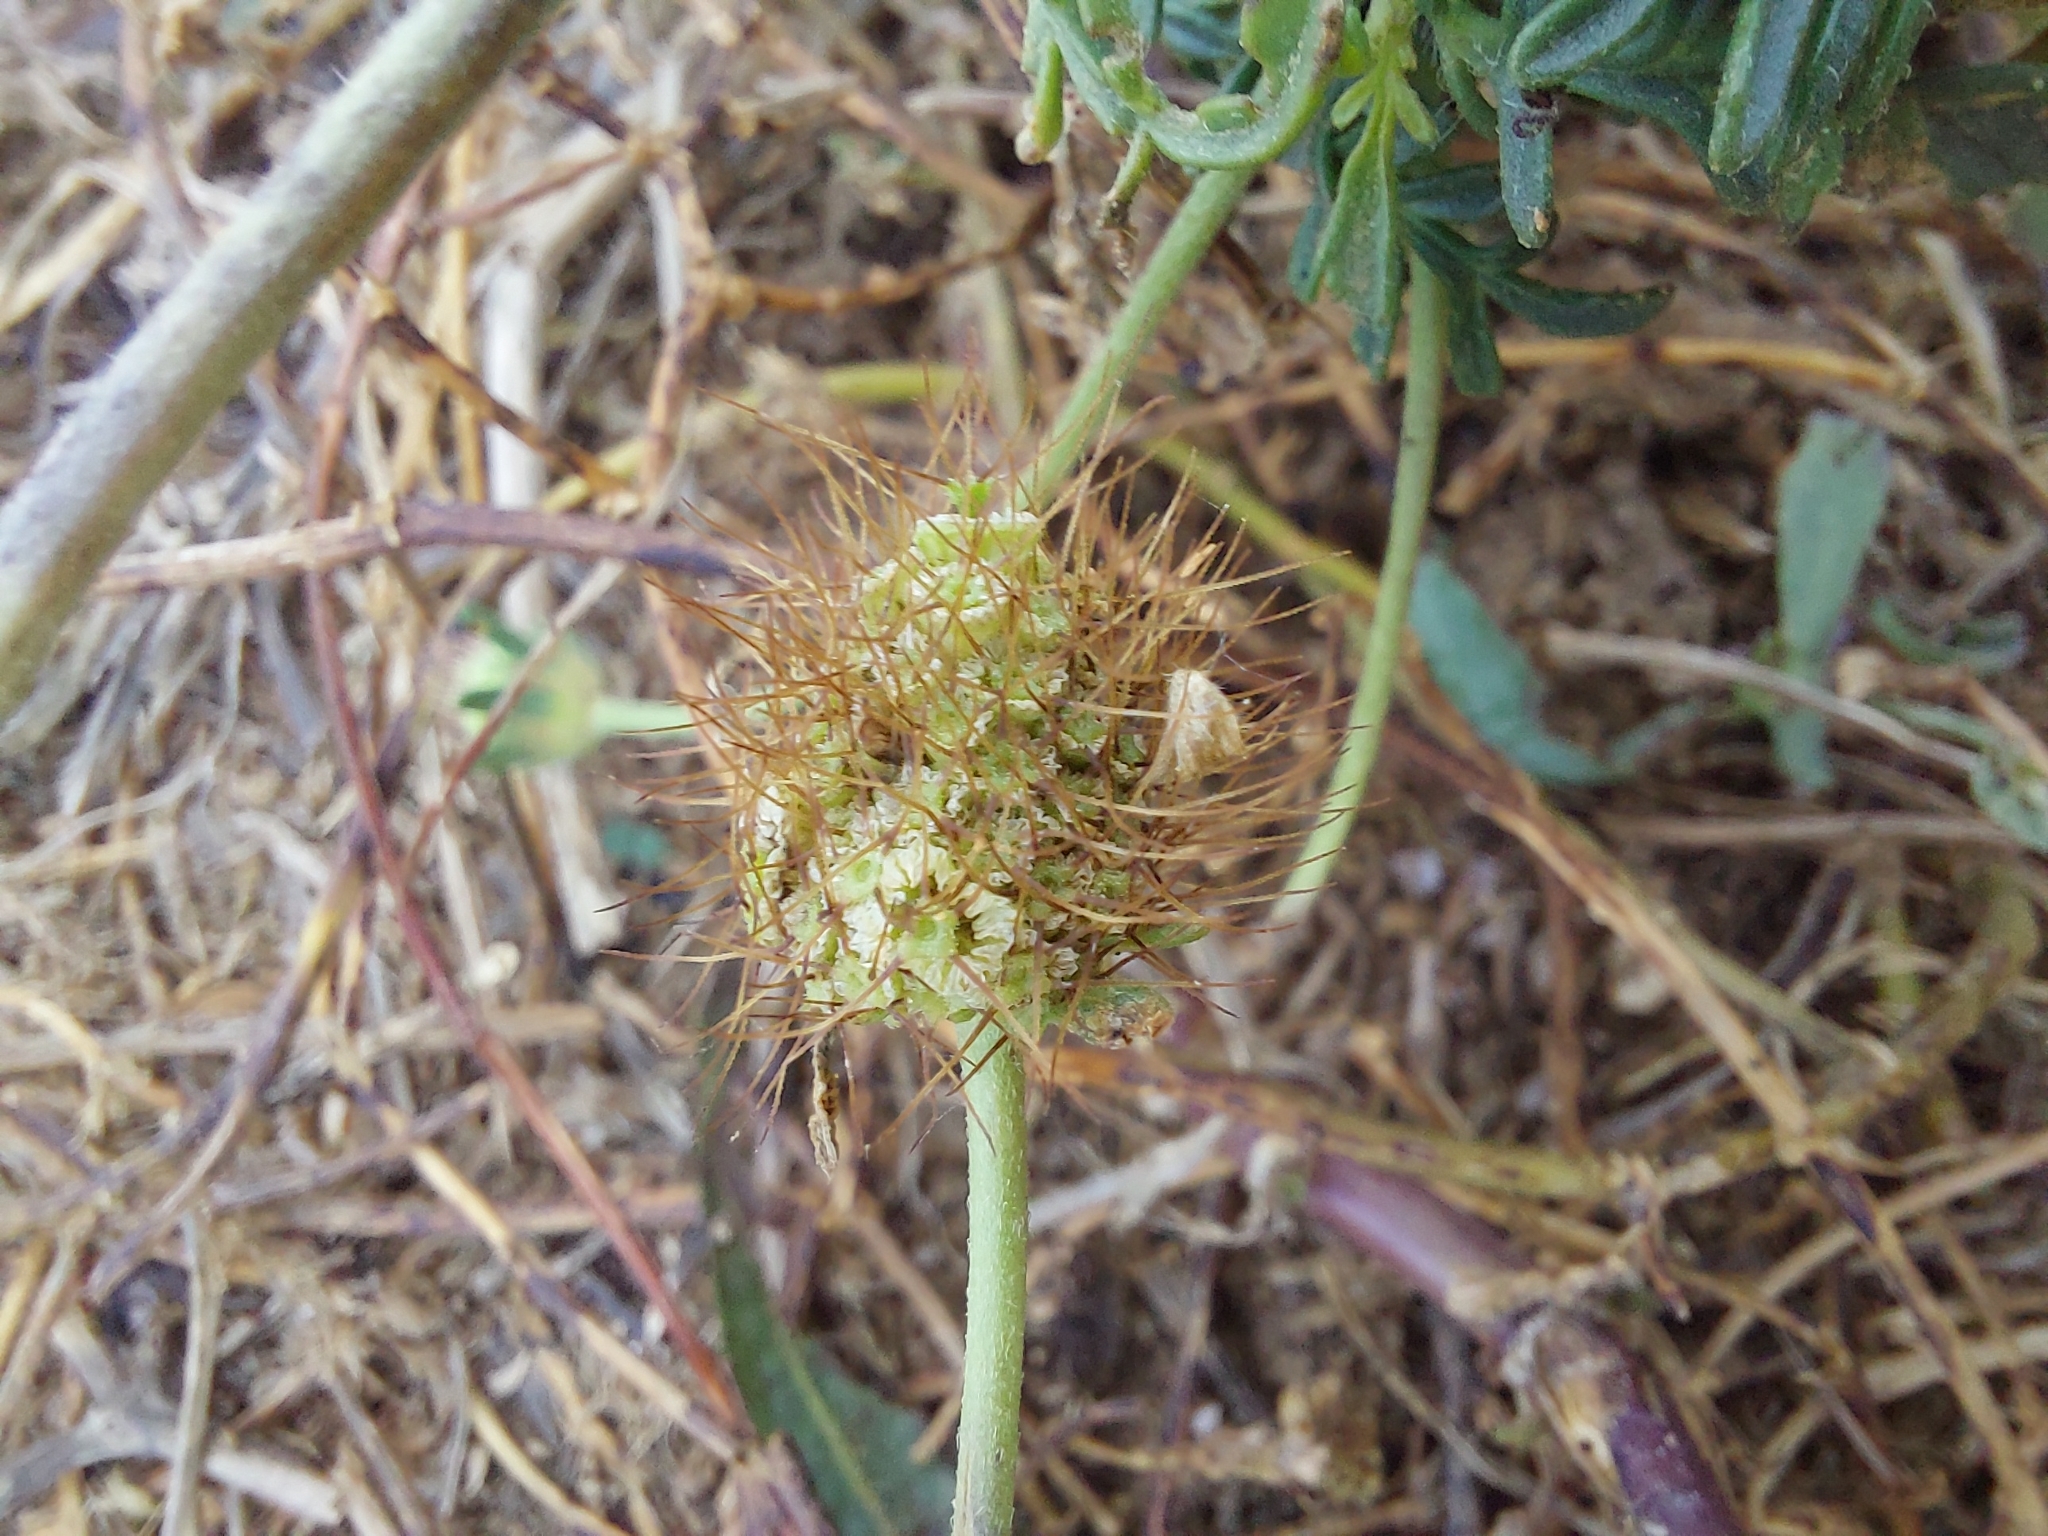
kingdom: Plantae
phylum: Tracheophyta
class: Magnoliopsida
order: Dipsacales
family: Caprifoliaceae
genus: Sixalix
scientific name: Sixalix atropurpurea
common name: Sweet scabious
